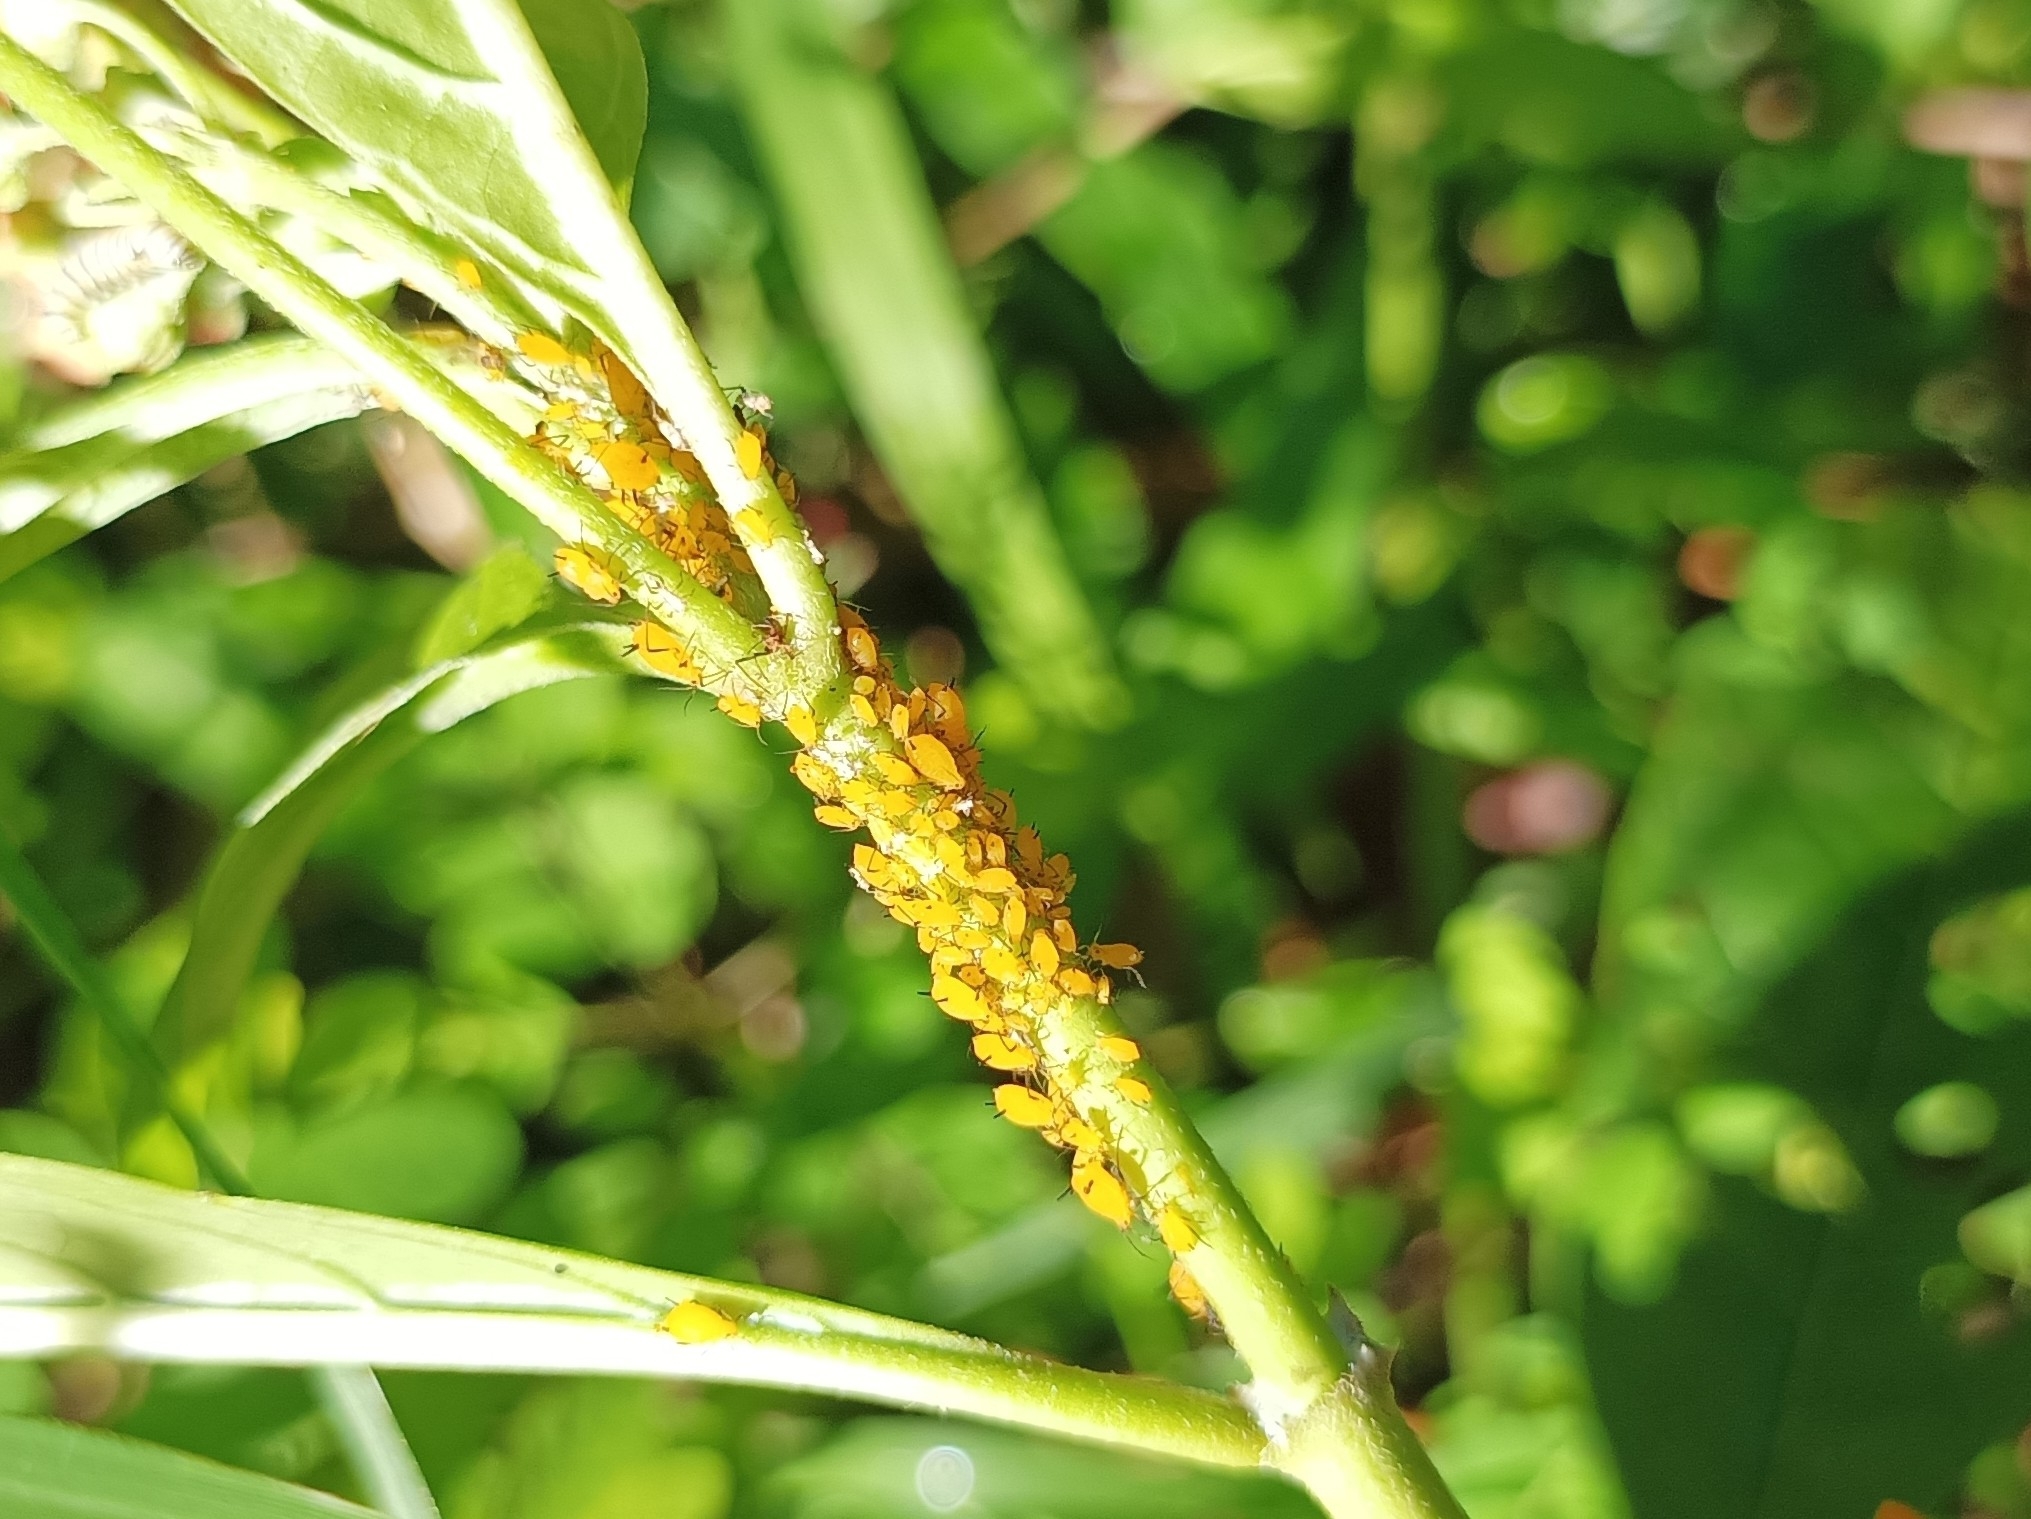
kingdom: Animalia
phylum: Arthropoda
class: Insecta
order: Hemiptera
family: Aphididae
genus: Aphis
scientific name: Aphis nerii
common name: Oleander aphid
